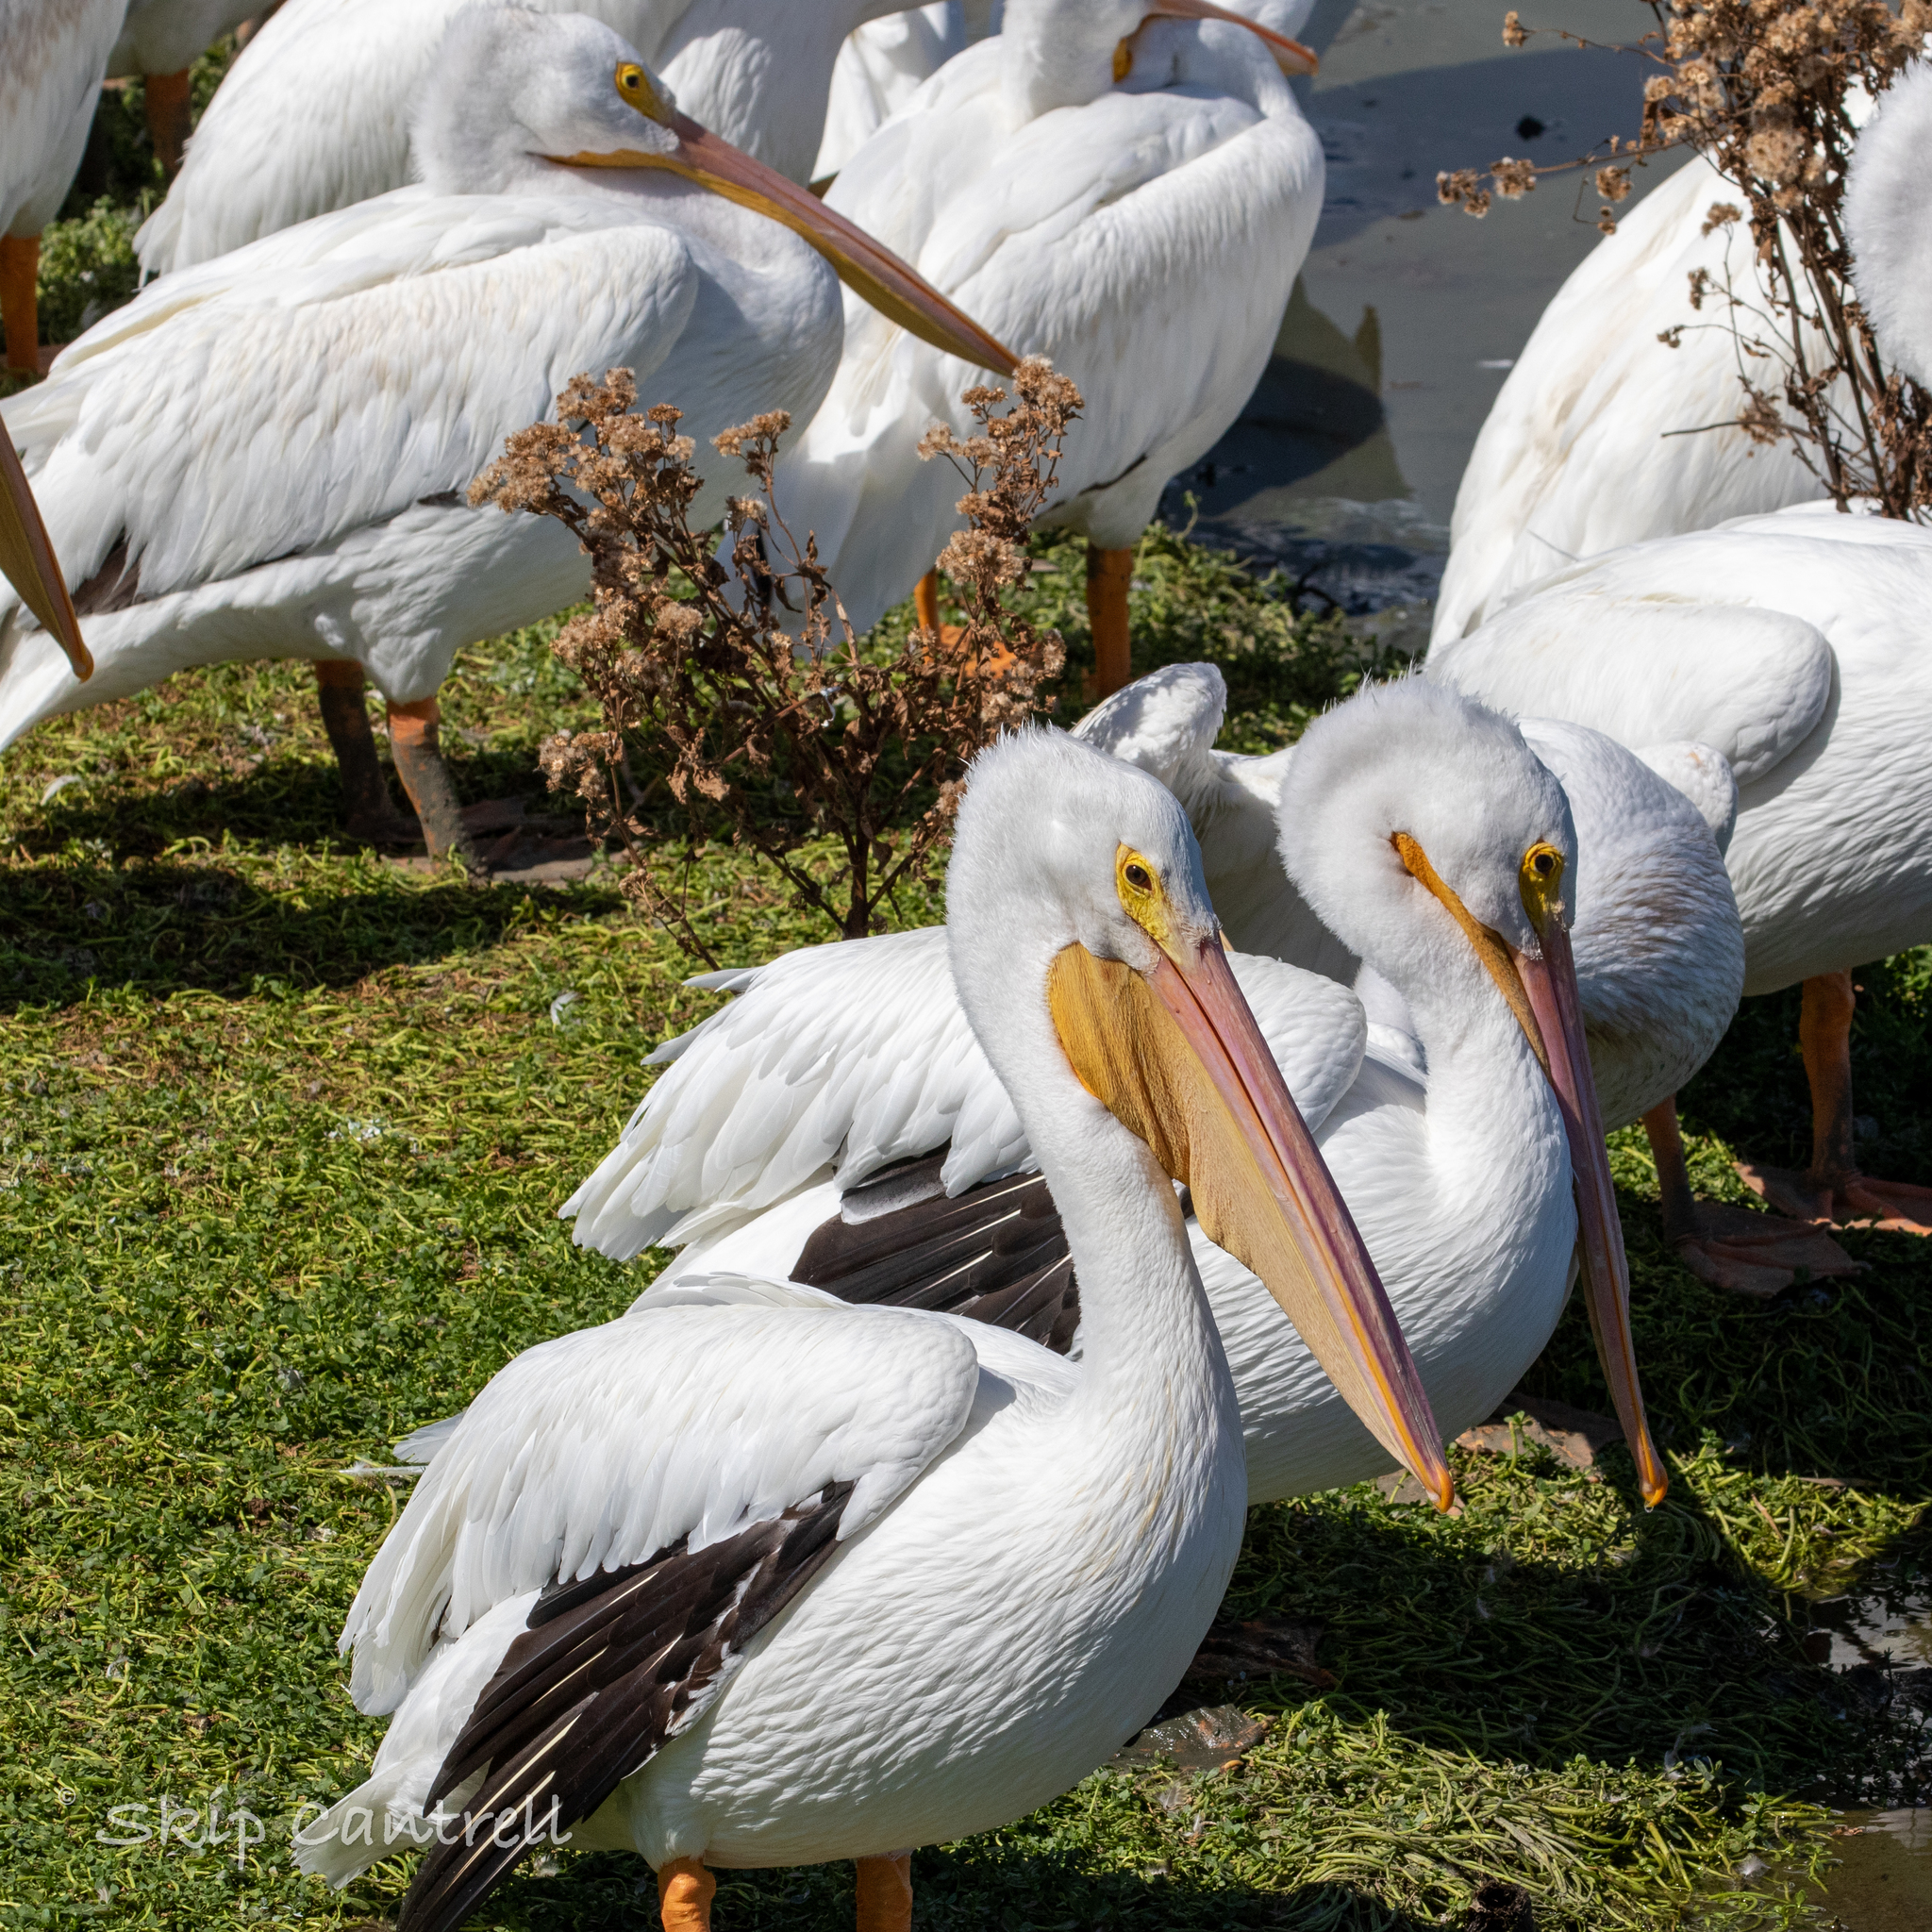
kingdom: Animalia
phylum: Chordata
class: Aves
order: Pelecaniformes
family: Pelecanidae
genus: Pelecanus
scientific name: Pelecanus erythrorhynchos
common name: American white pelican
